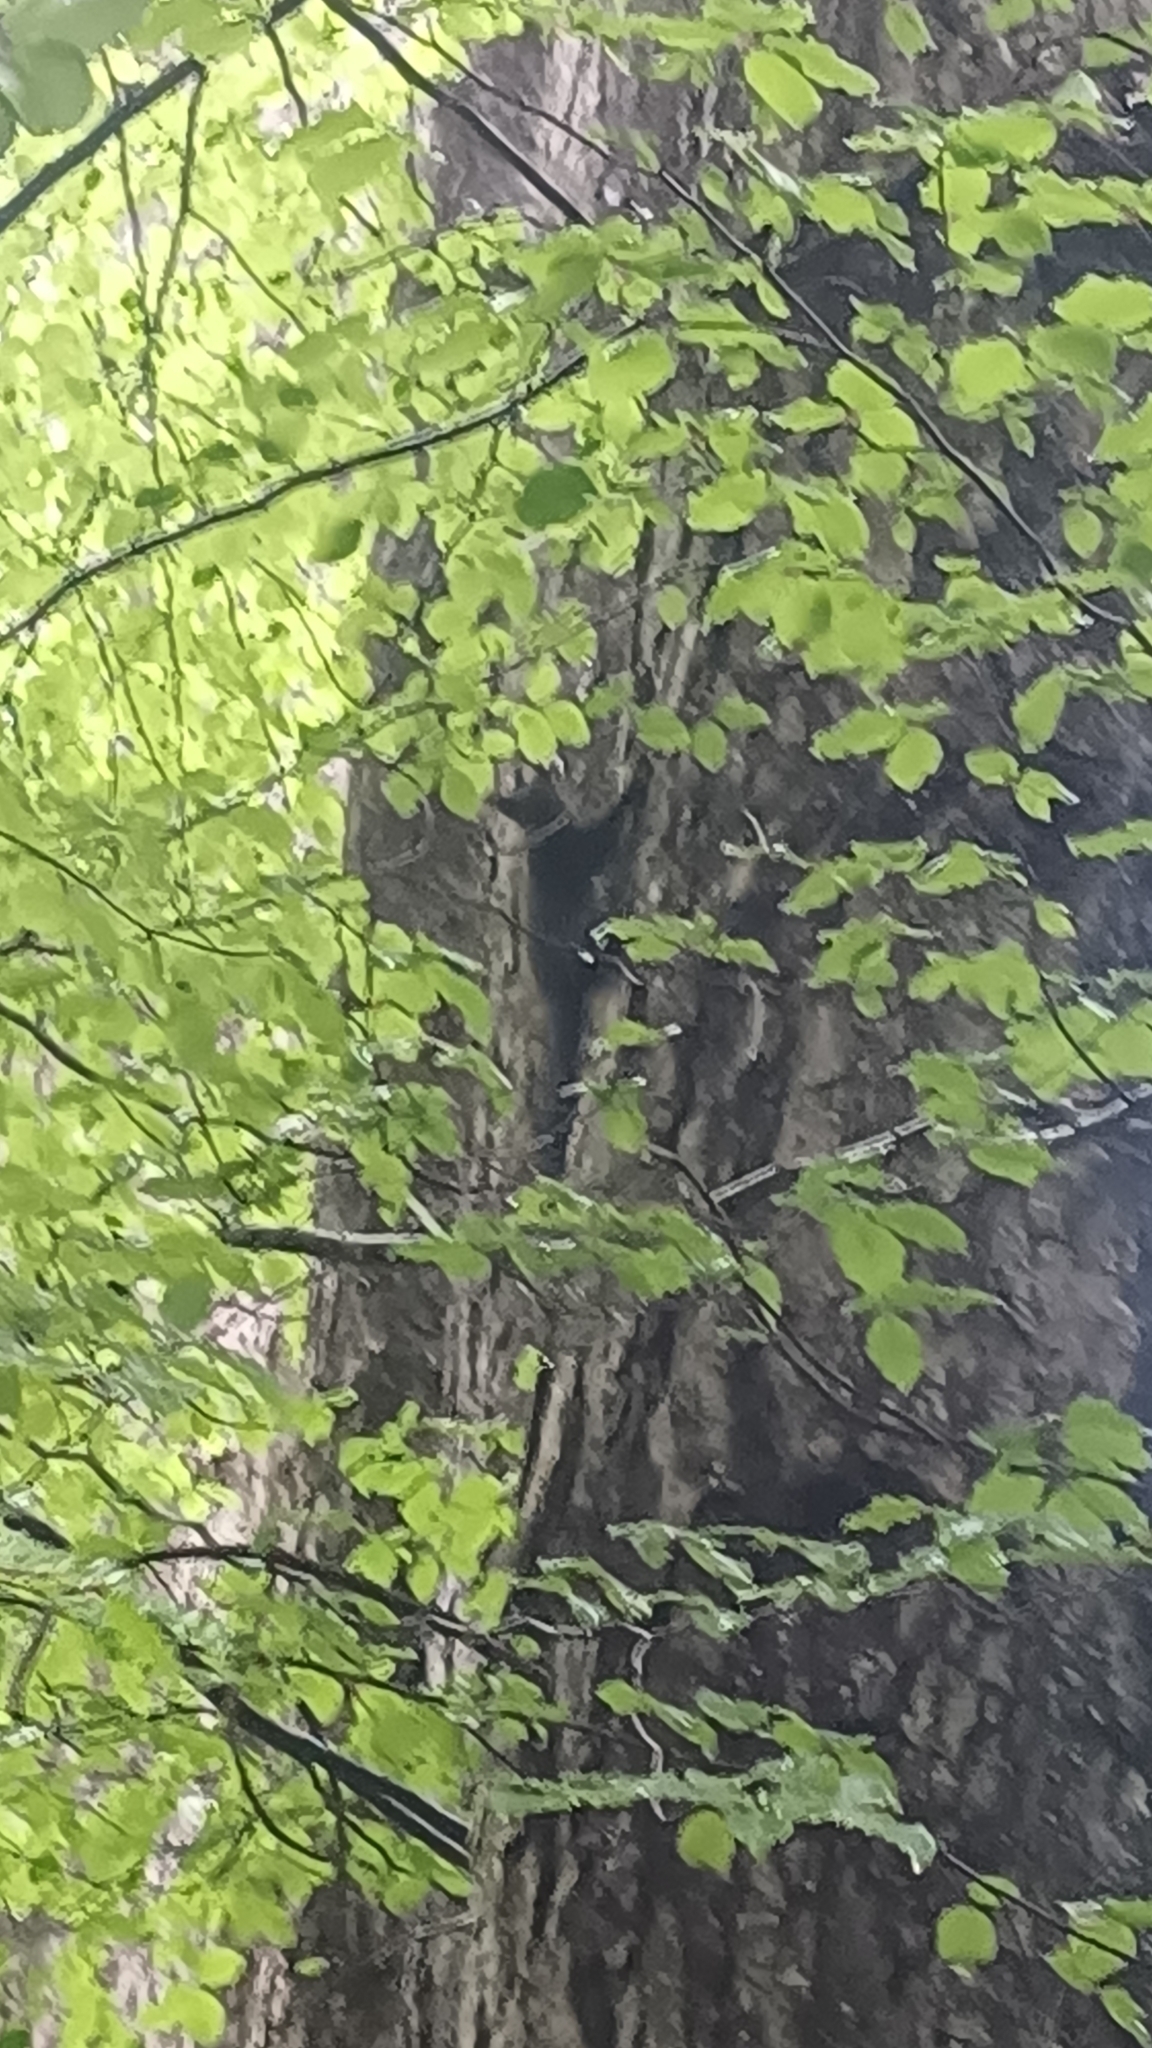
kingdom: Animalia
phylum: Chordata
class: Mammalia
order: Rodentia
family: Sciuridae
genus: Sciurus
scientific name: Sciurus
